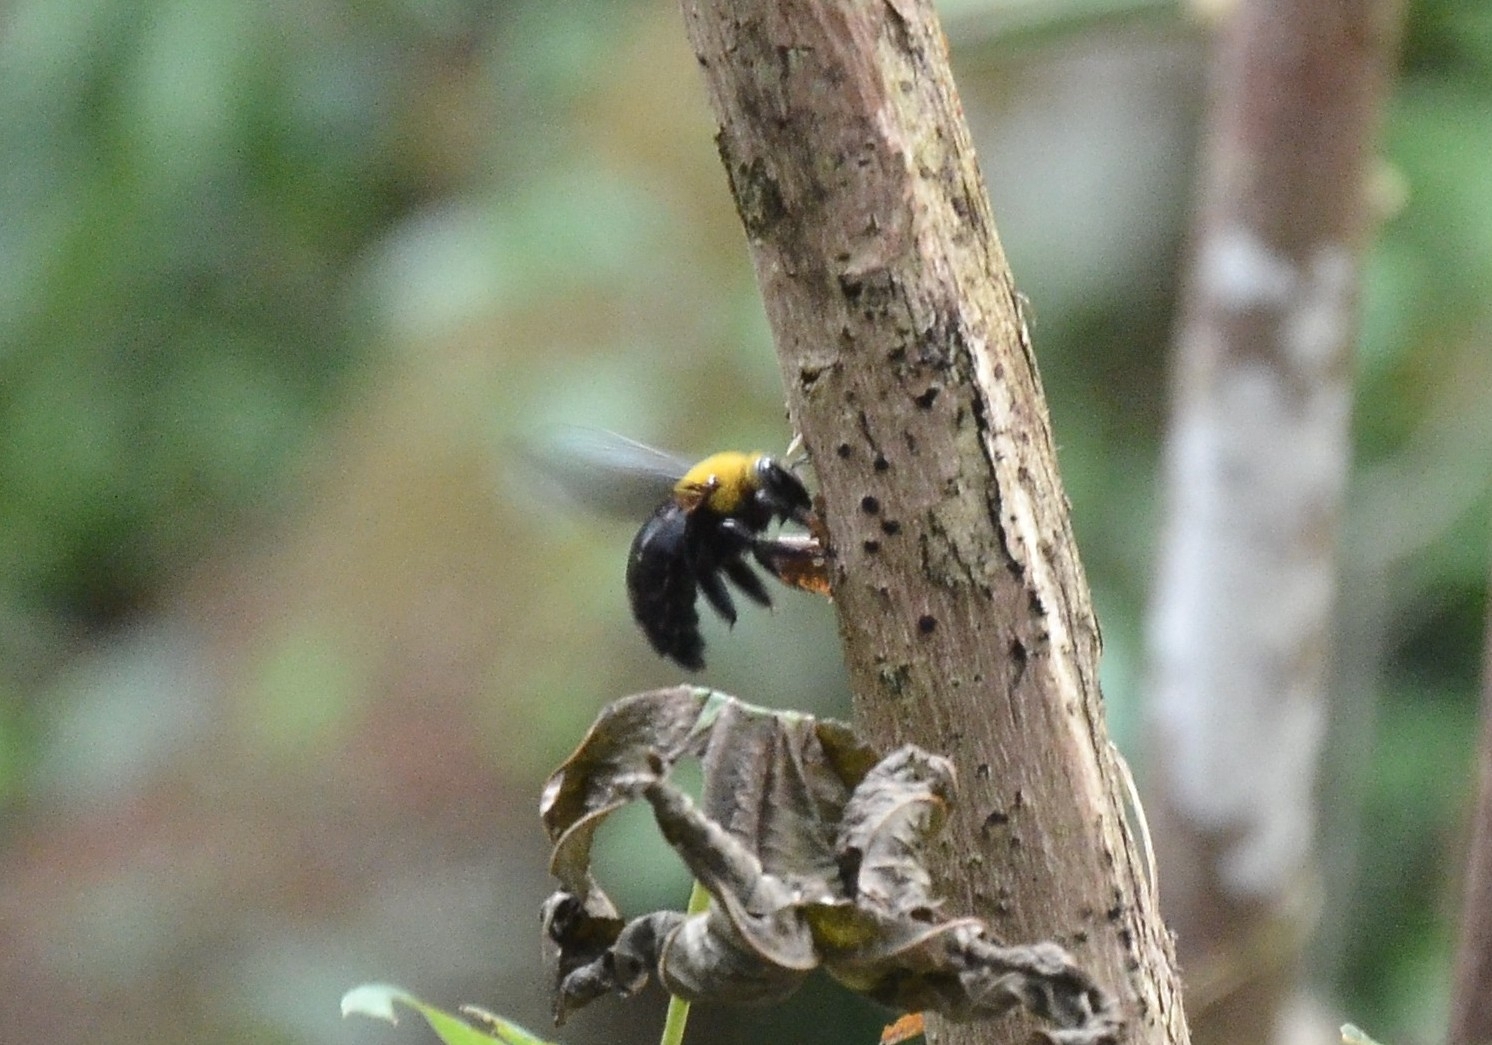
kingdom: Animalia
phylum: Arthropoda
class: Insecta
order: Hymenoptera
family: Apidae
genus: Xylocopa
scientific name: Xylocopa ruficornis
